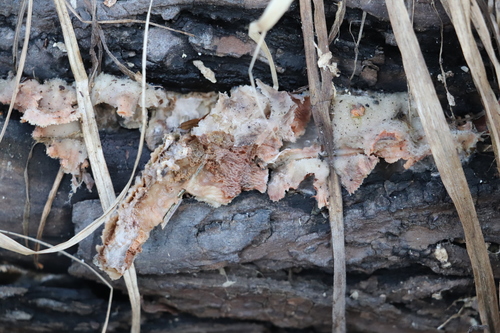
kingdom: Fungi
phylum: Basidiomycota
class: Agaricomycetes
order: Polyporales
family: Meruliaceae
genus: Phlebia
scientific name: Phlebia tremellosa
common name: Jelly rot
